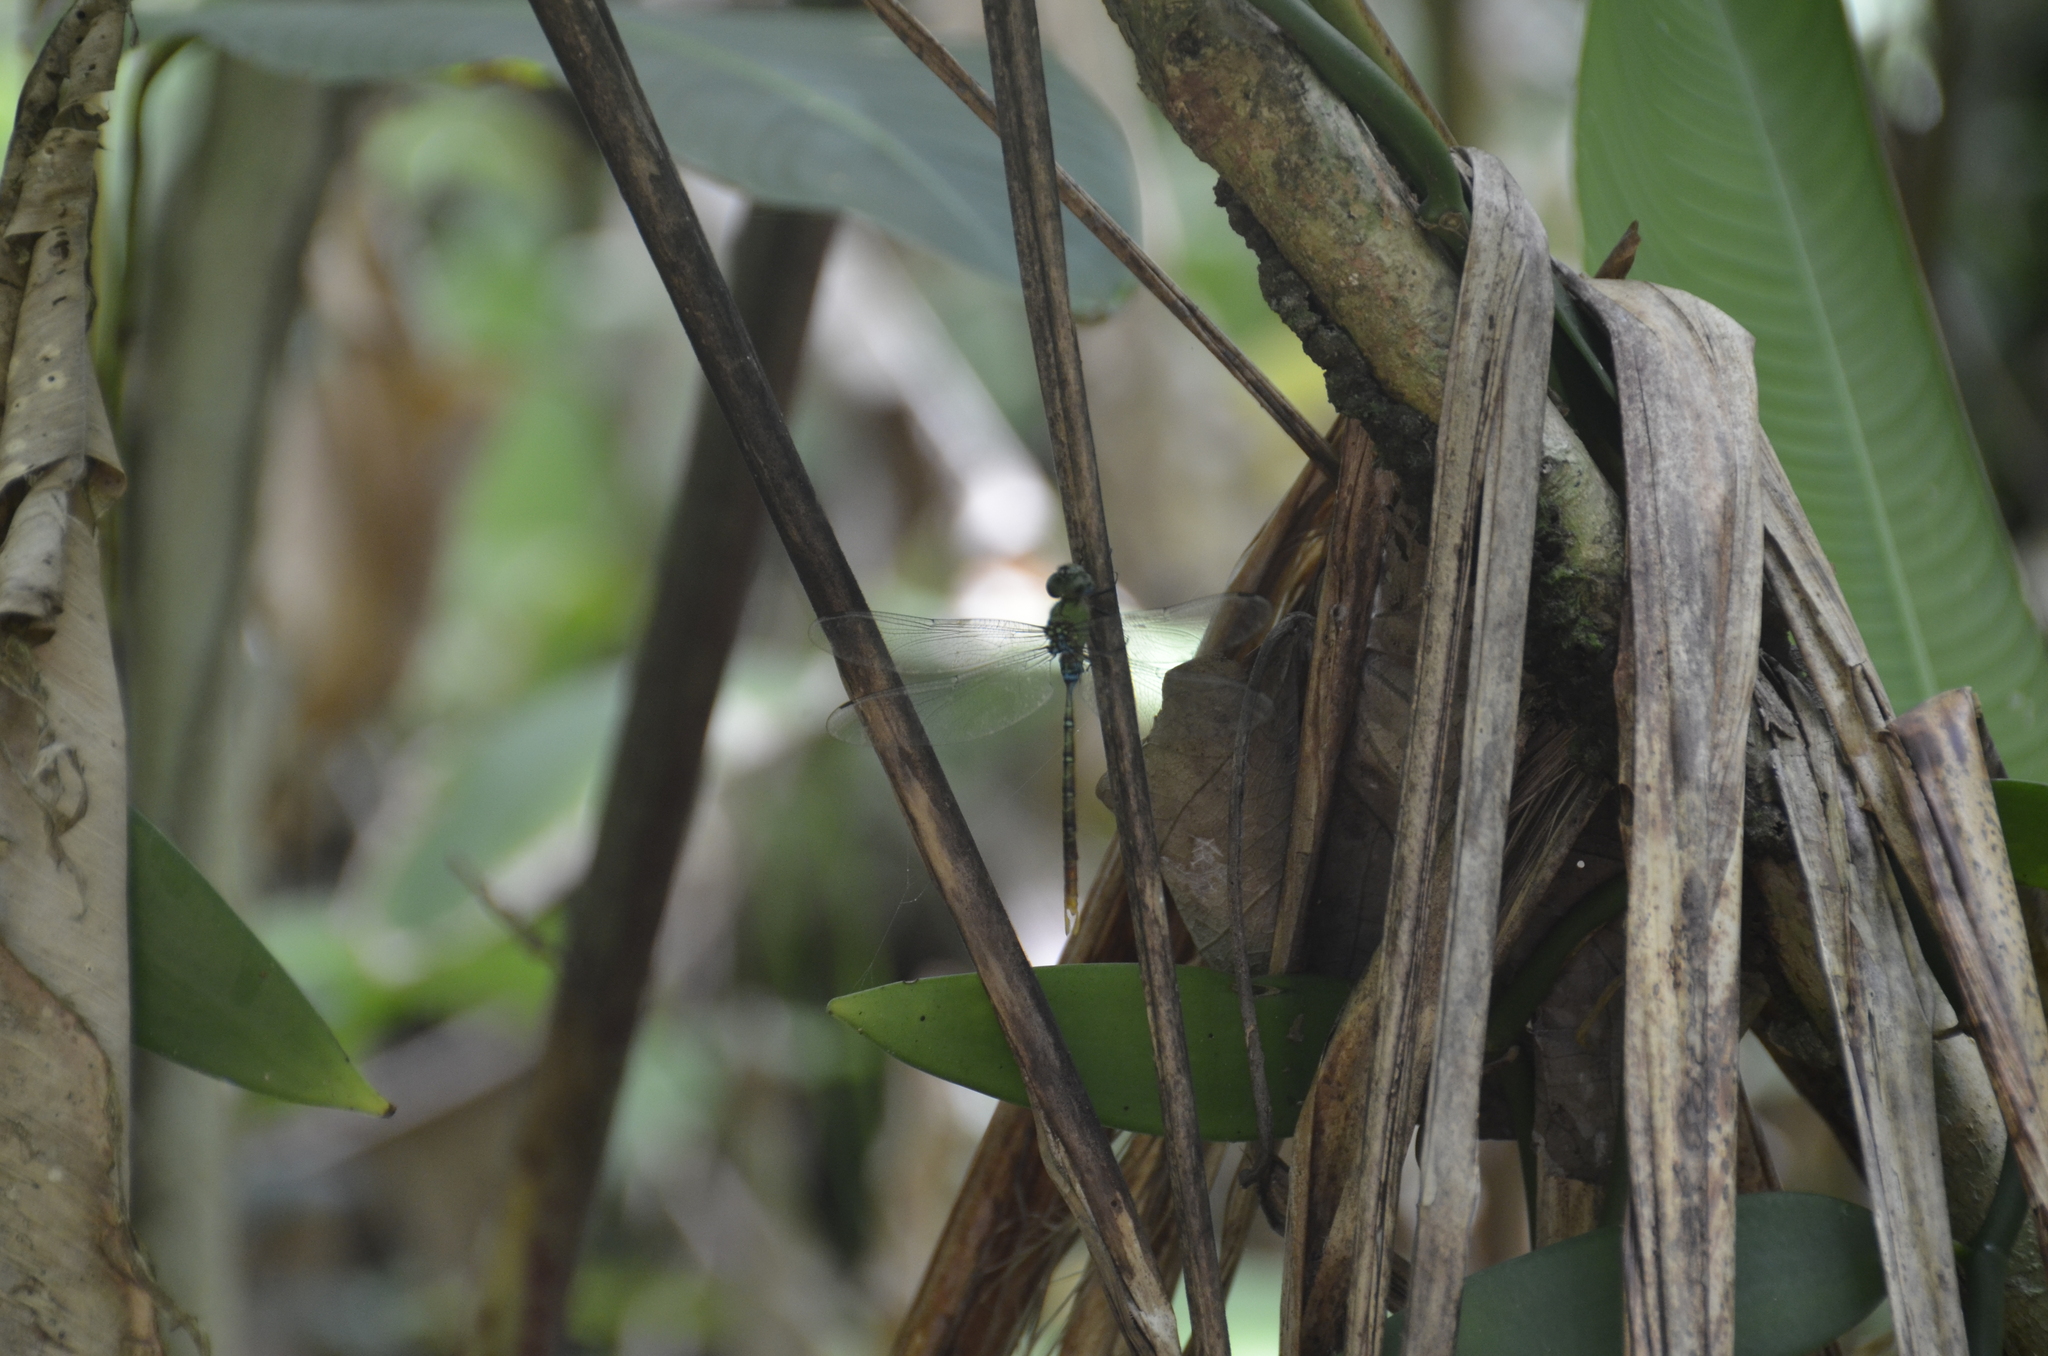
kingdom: Animalia
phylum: Arthropoda
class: Insecta
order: Odonata
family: Aeshnidae
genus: Gynacantha
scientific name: Gynacantha tibiata
